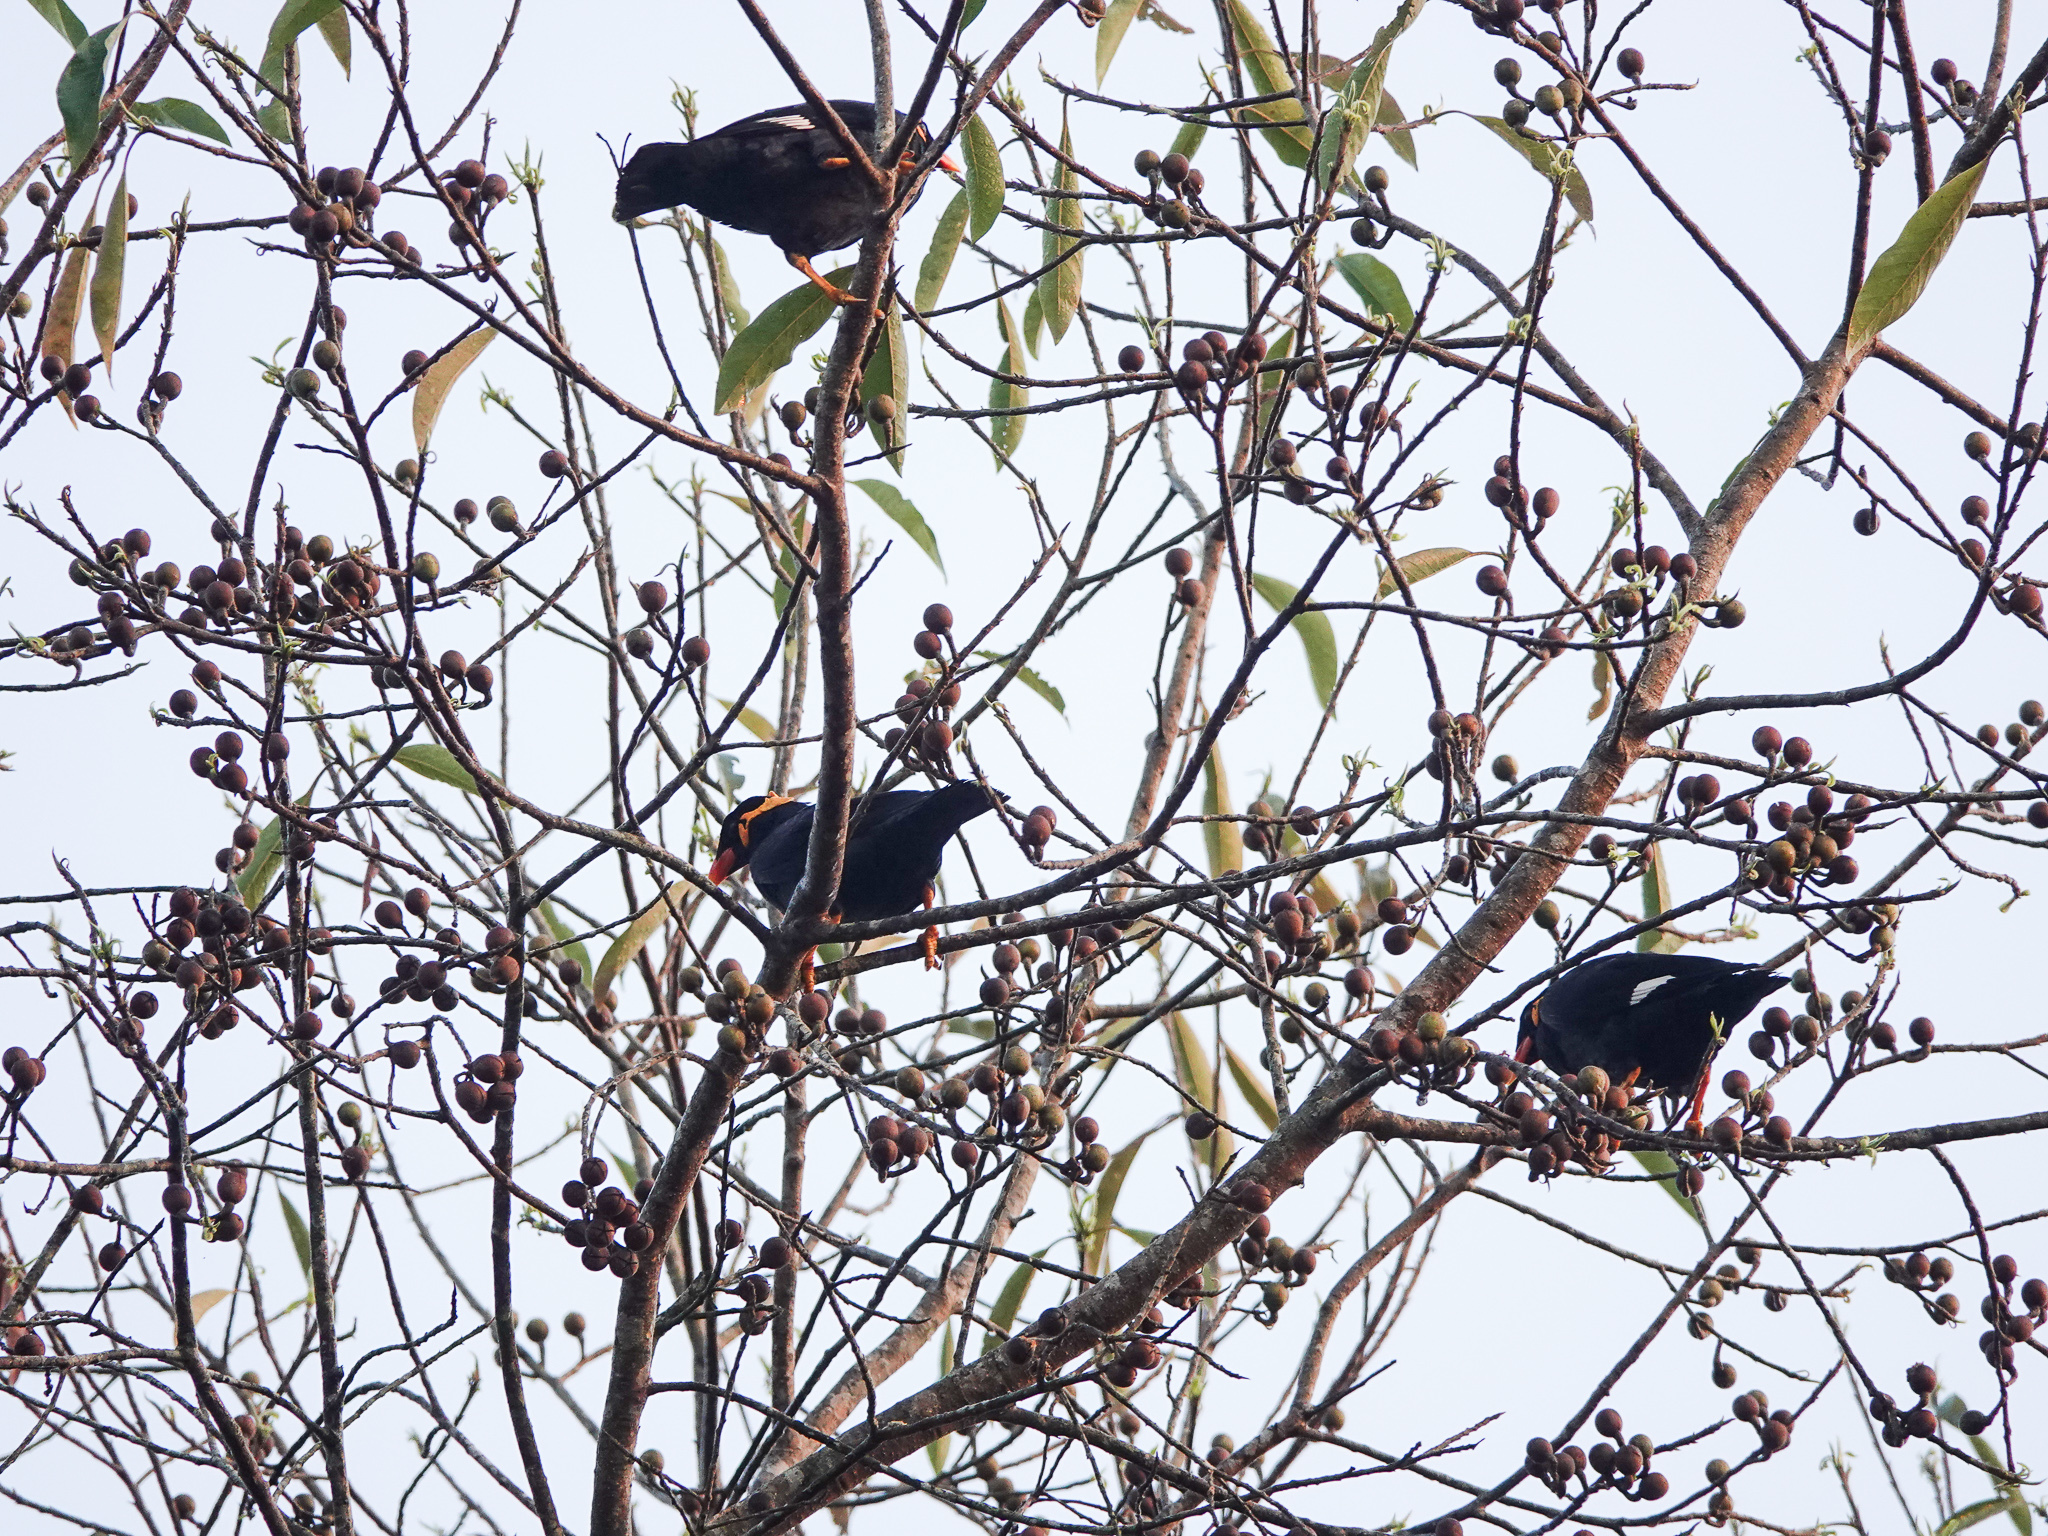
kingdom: Animalia
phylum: Chordata
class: Aves
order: Passeriformes
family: Sturnidae
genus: Gracula
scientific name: Gracula religiosa
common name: Common hill myna
